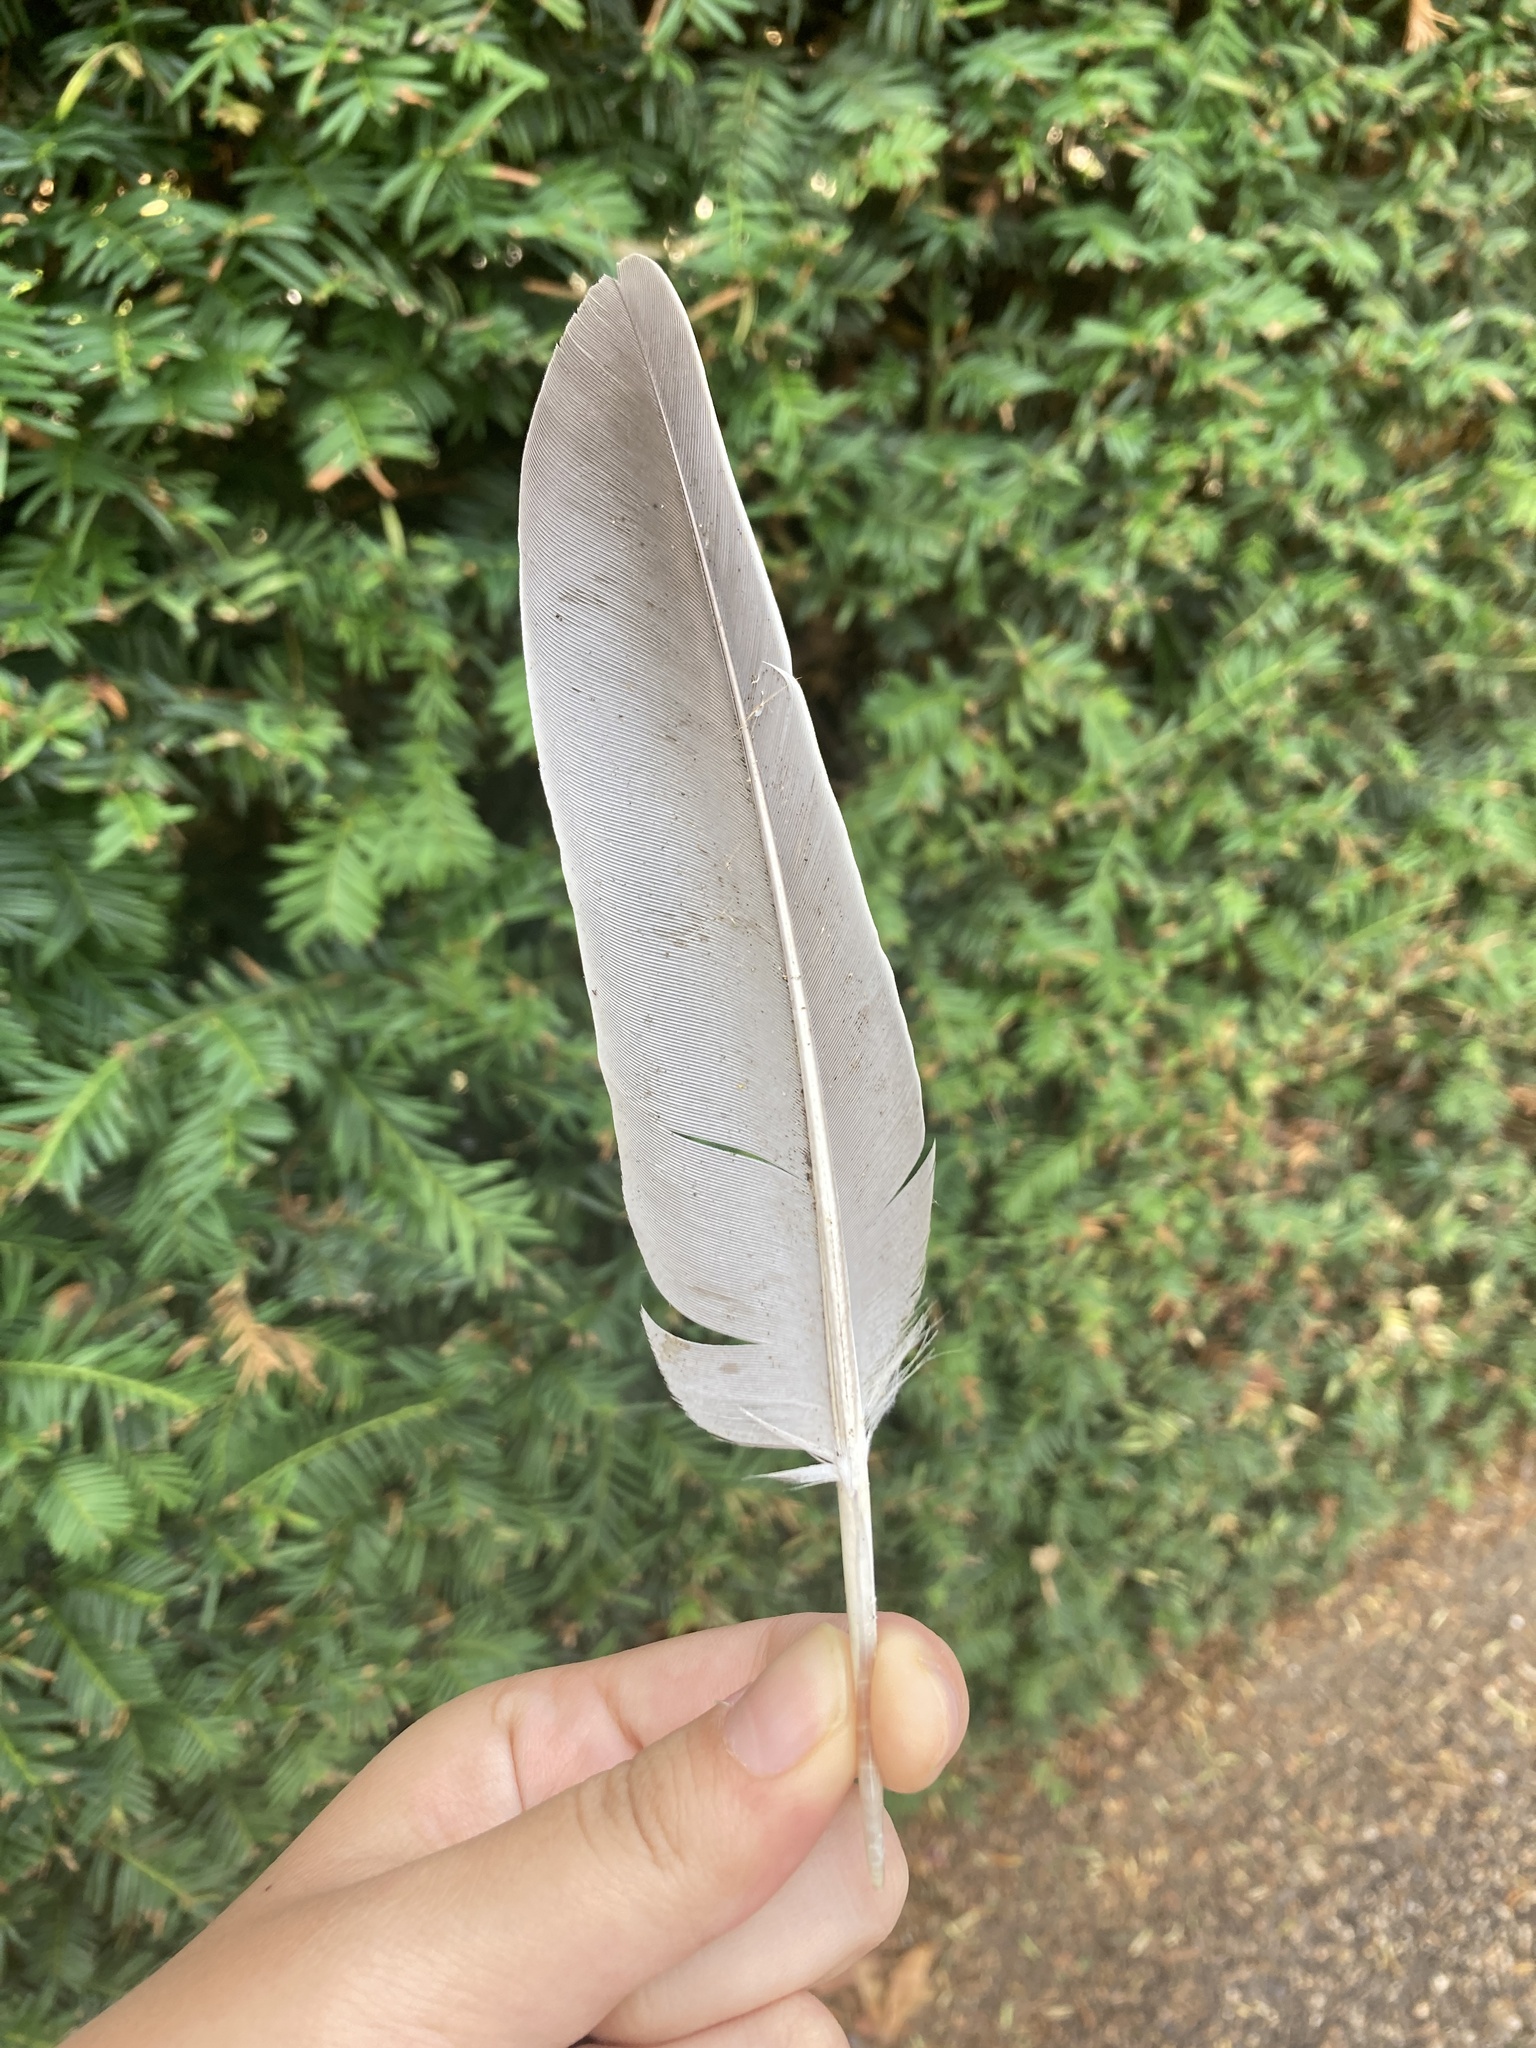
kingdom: Animalia
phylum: Chordata
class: Aves
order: Columbiformes
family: Columbidae
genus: Columba
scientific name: Columba palumbus
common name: Common wood pigeon
